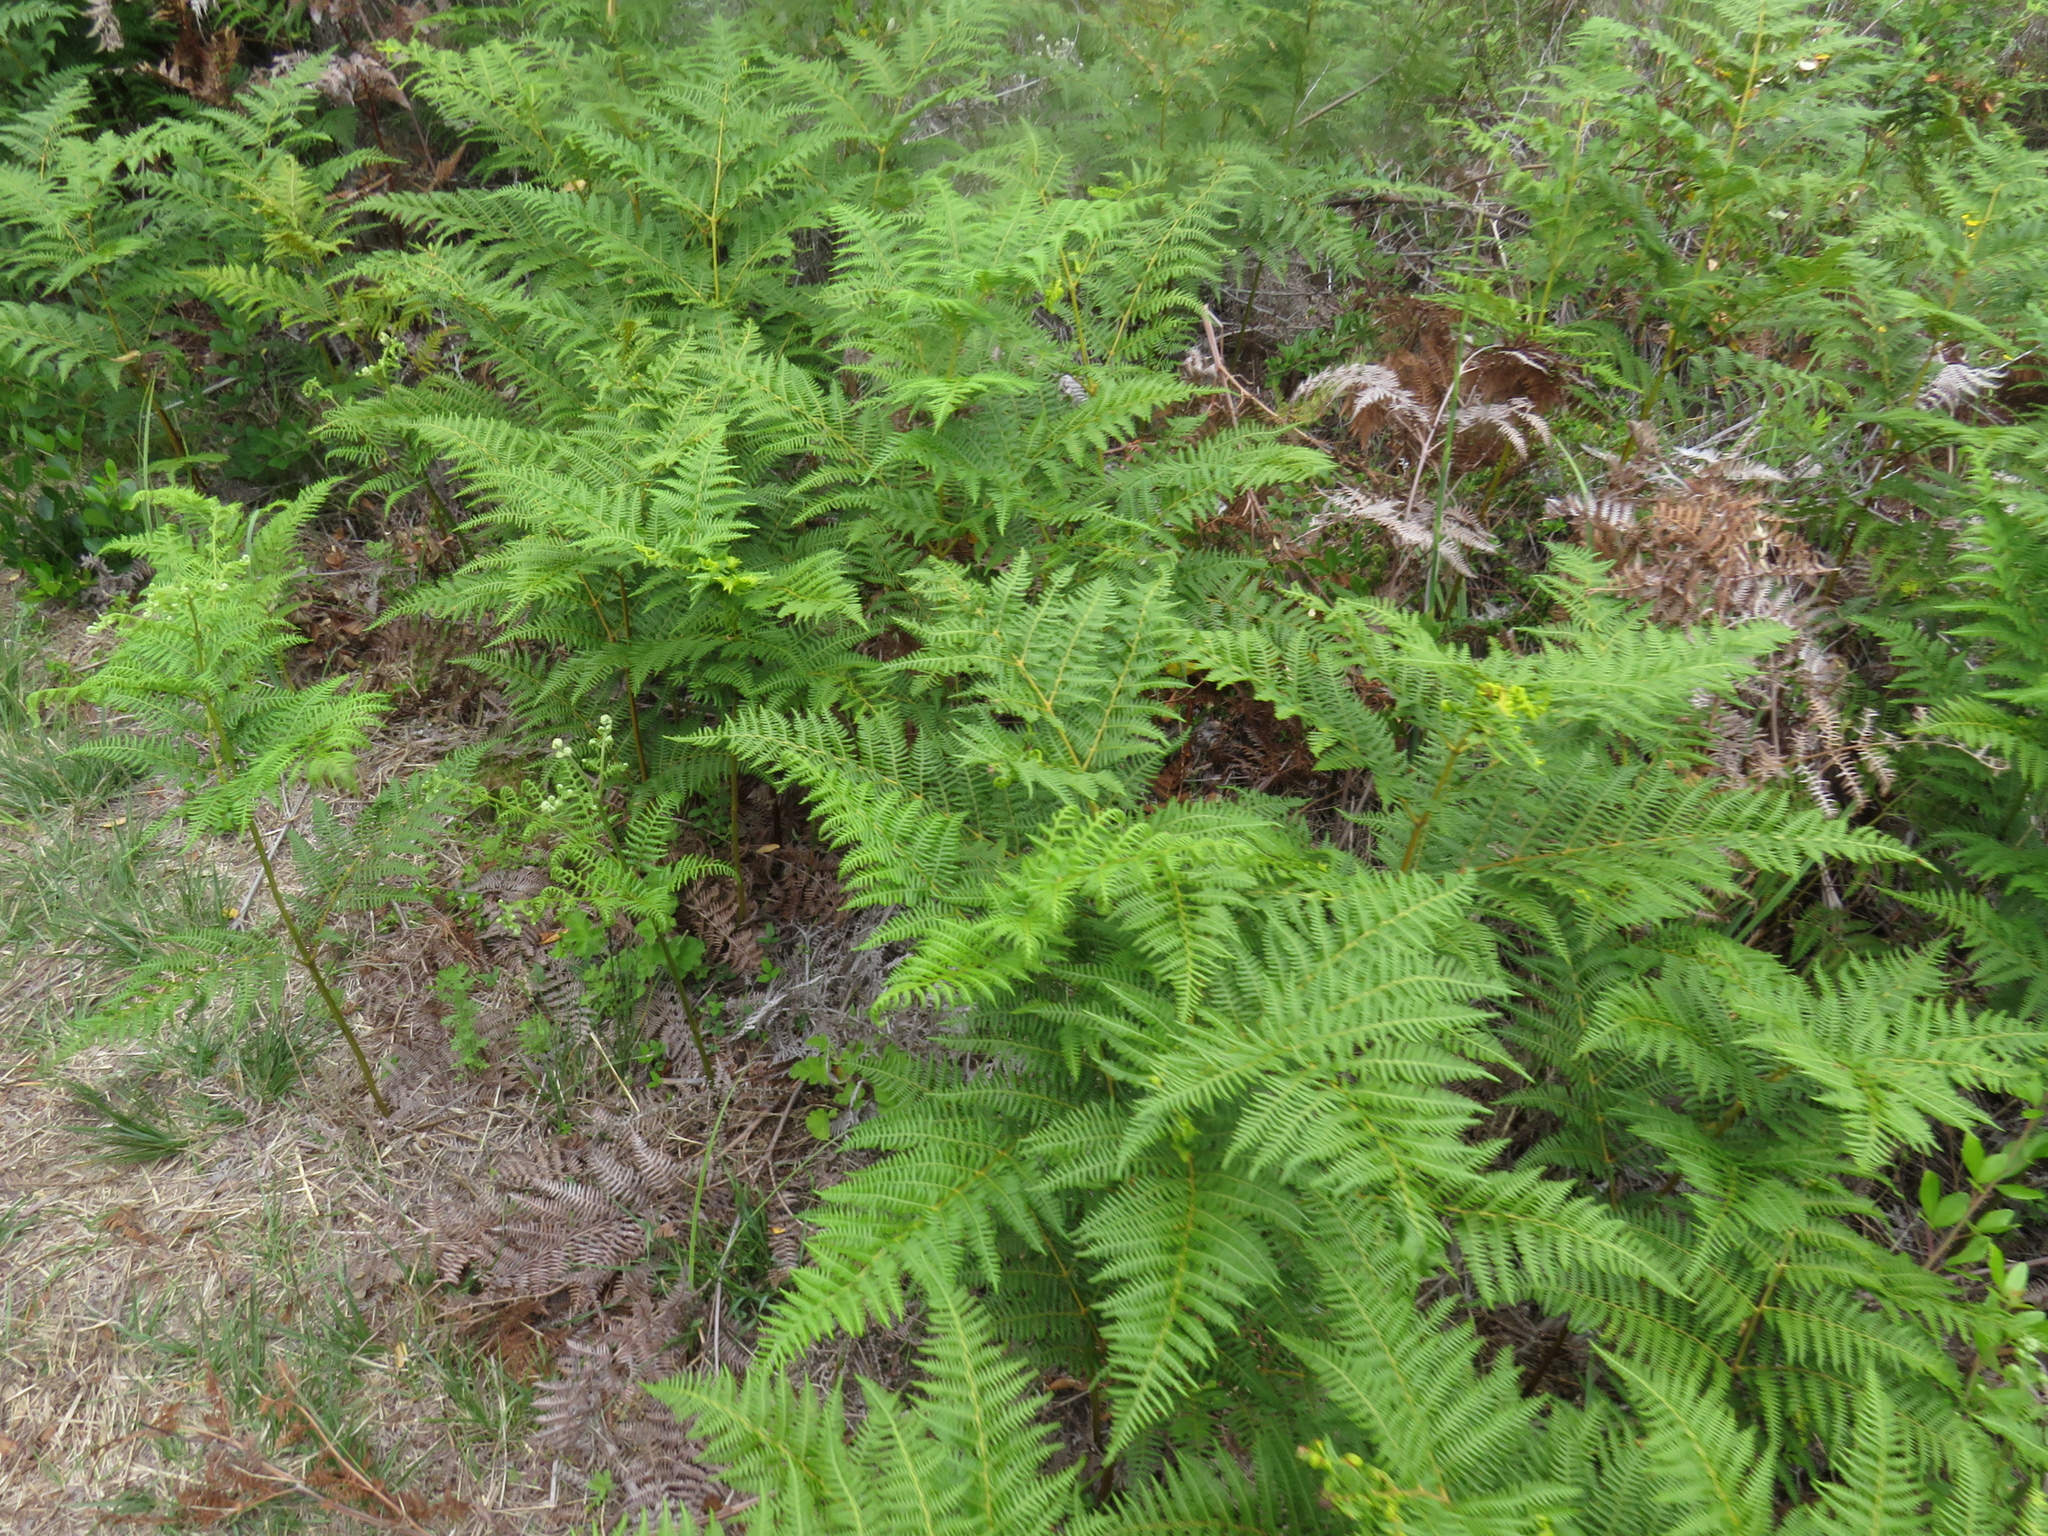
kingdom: Plantae
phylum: Tracheophyta
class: Polypodiopsida
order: Polypodiales
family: Dennstaedtiaceae
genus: Pteridium
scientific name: Pteridium aquilinum
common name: Bracken
